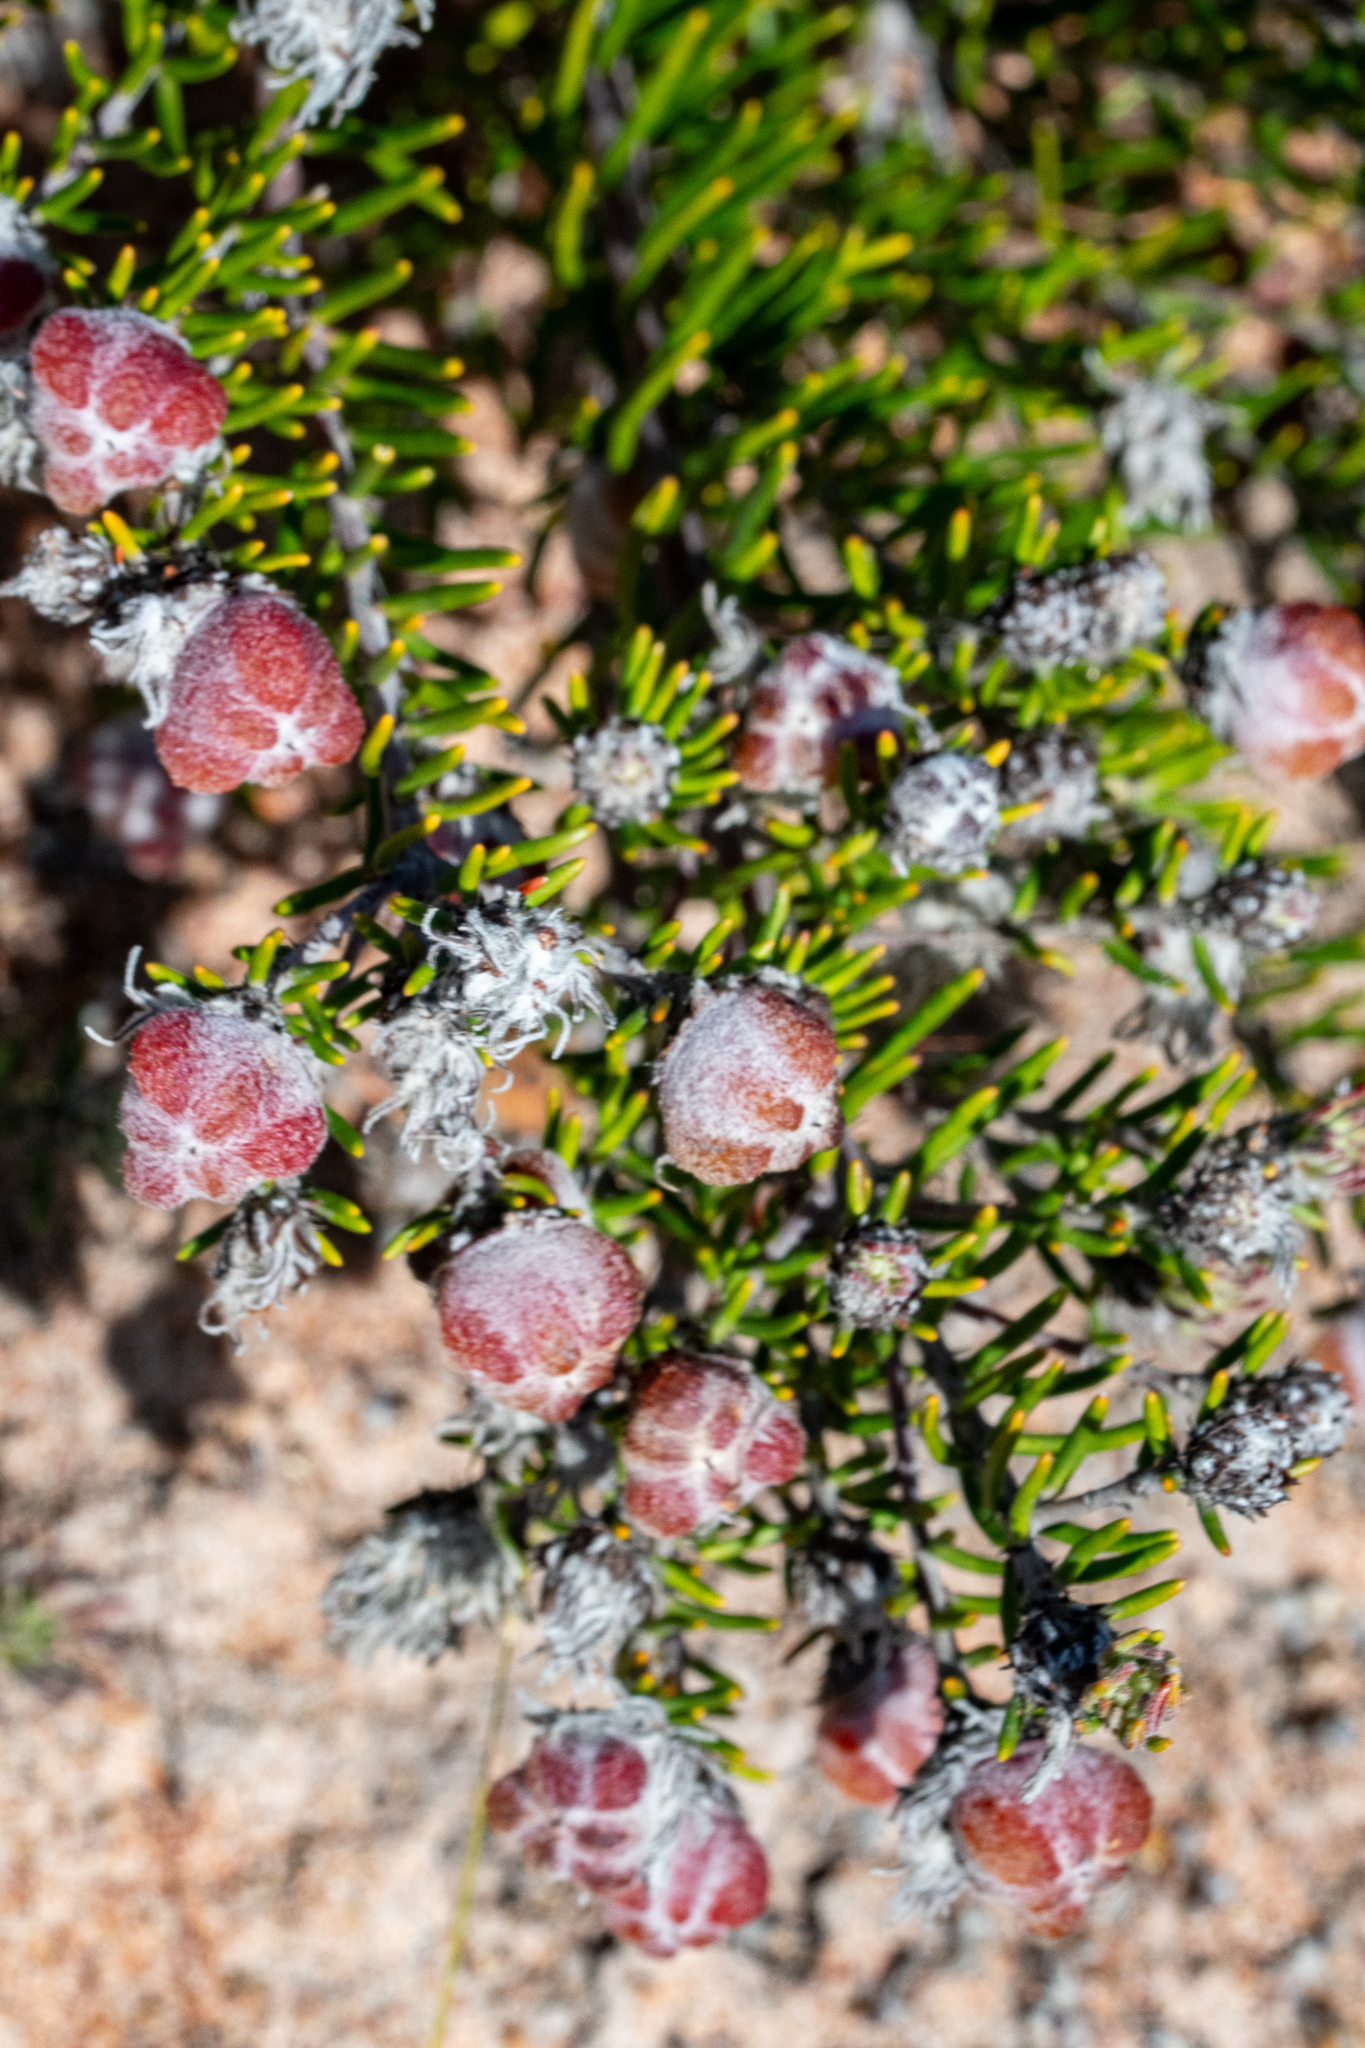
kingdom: Plantae
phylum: Tracheophyta
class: Magnoliopsida
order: Rosales
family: Rhamnaceae
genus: Trichocephalus
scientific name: Trichocephalus stipularis
